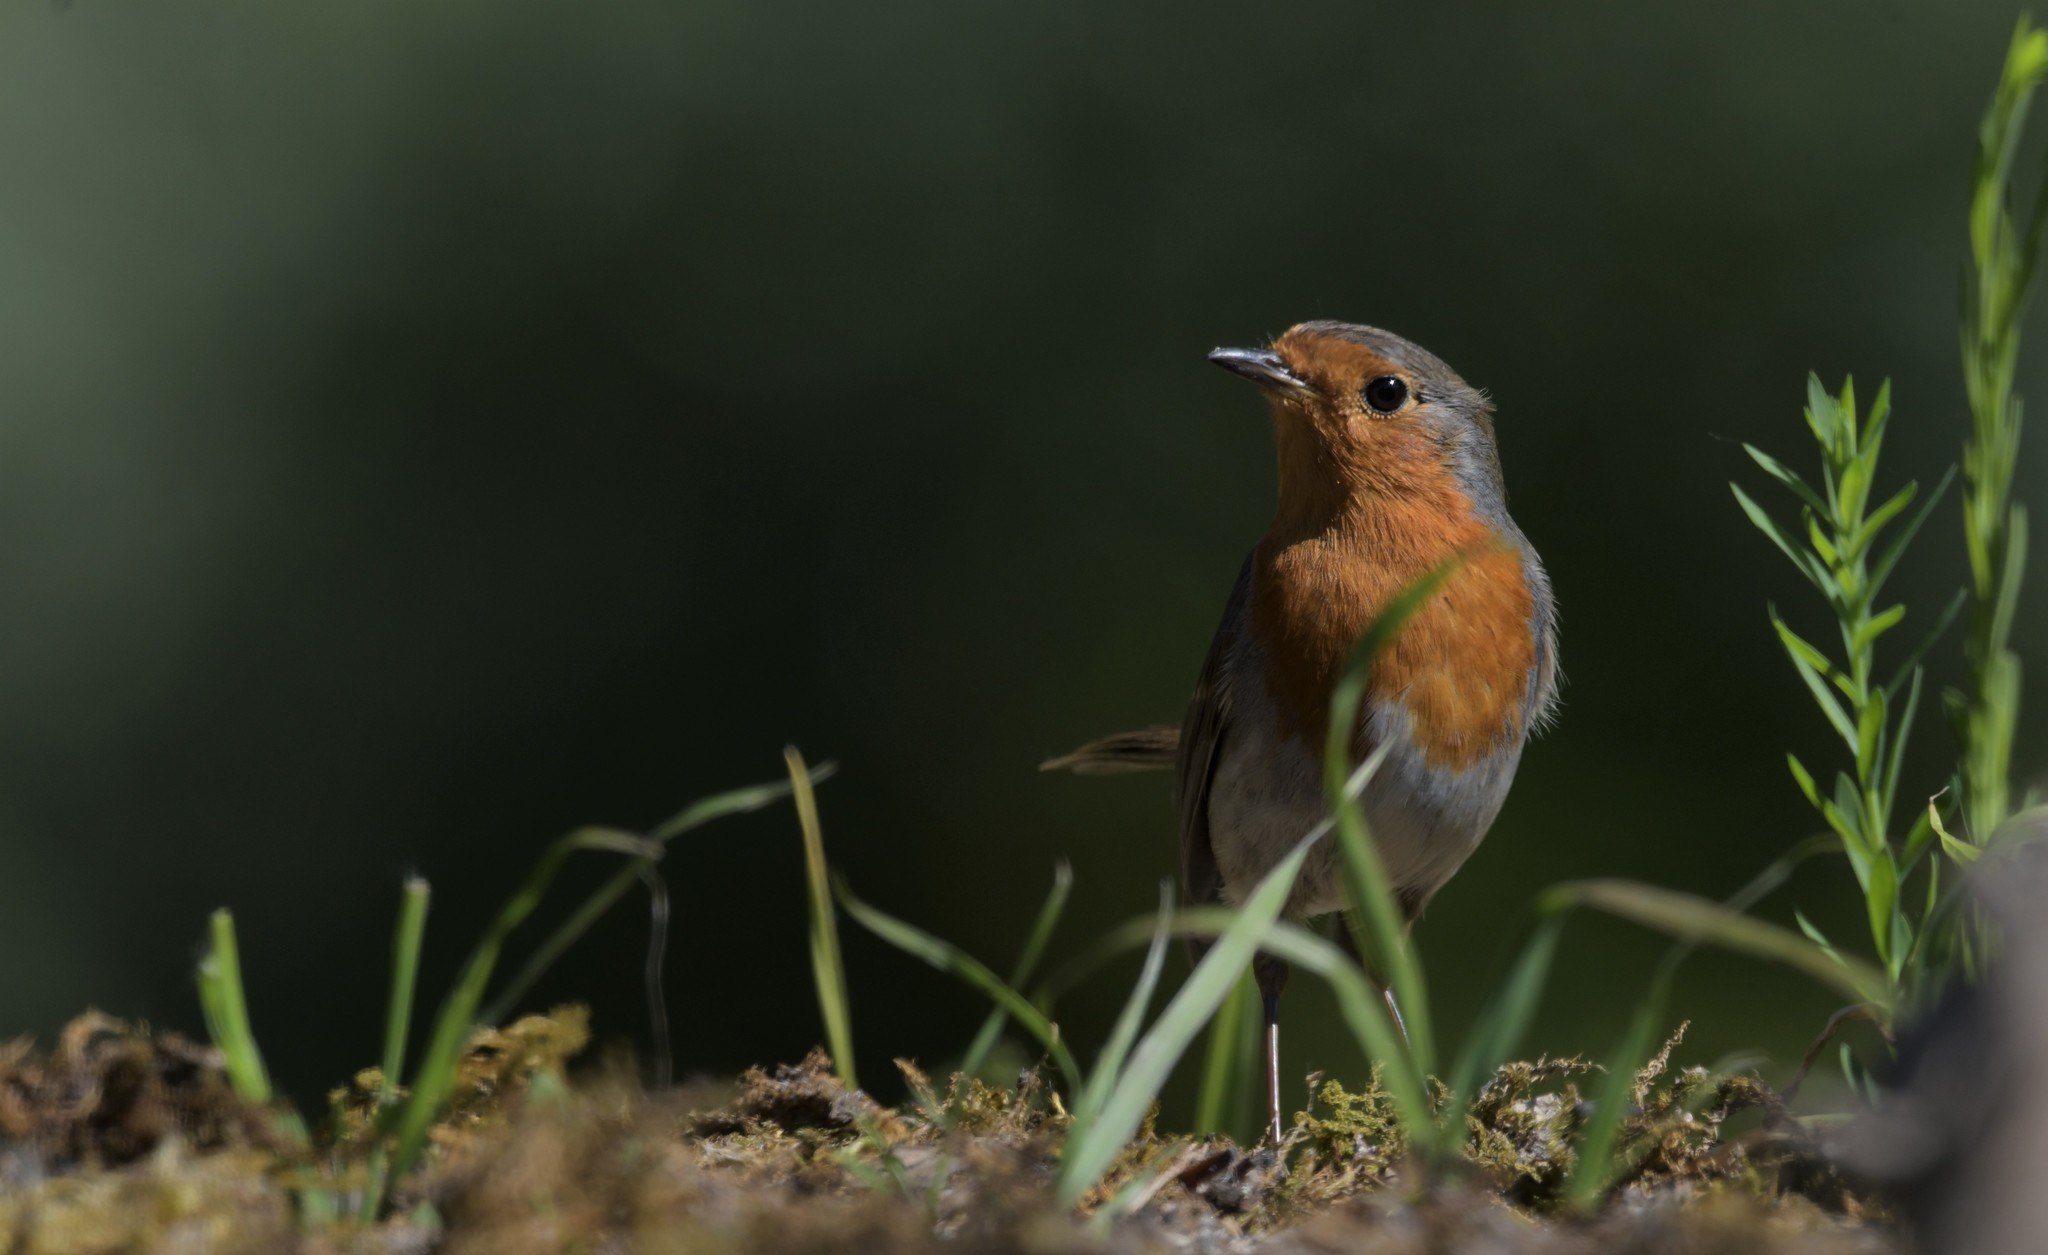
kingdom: Animalia
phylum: Chordata
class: Aves
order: Passeriformes
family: Muscicapidae
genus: Erithacus
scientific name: Erithacus rubecula
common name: European robin
